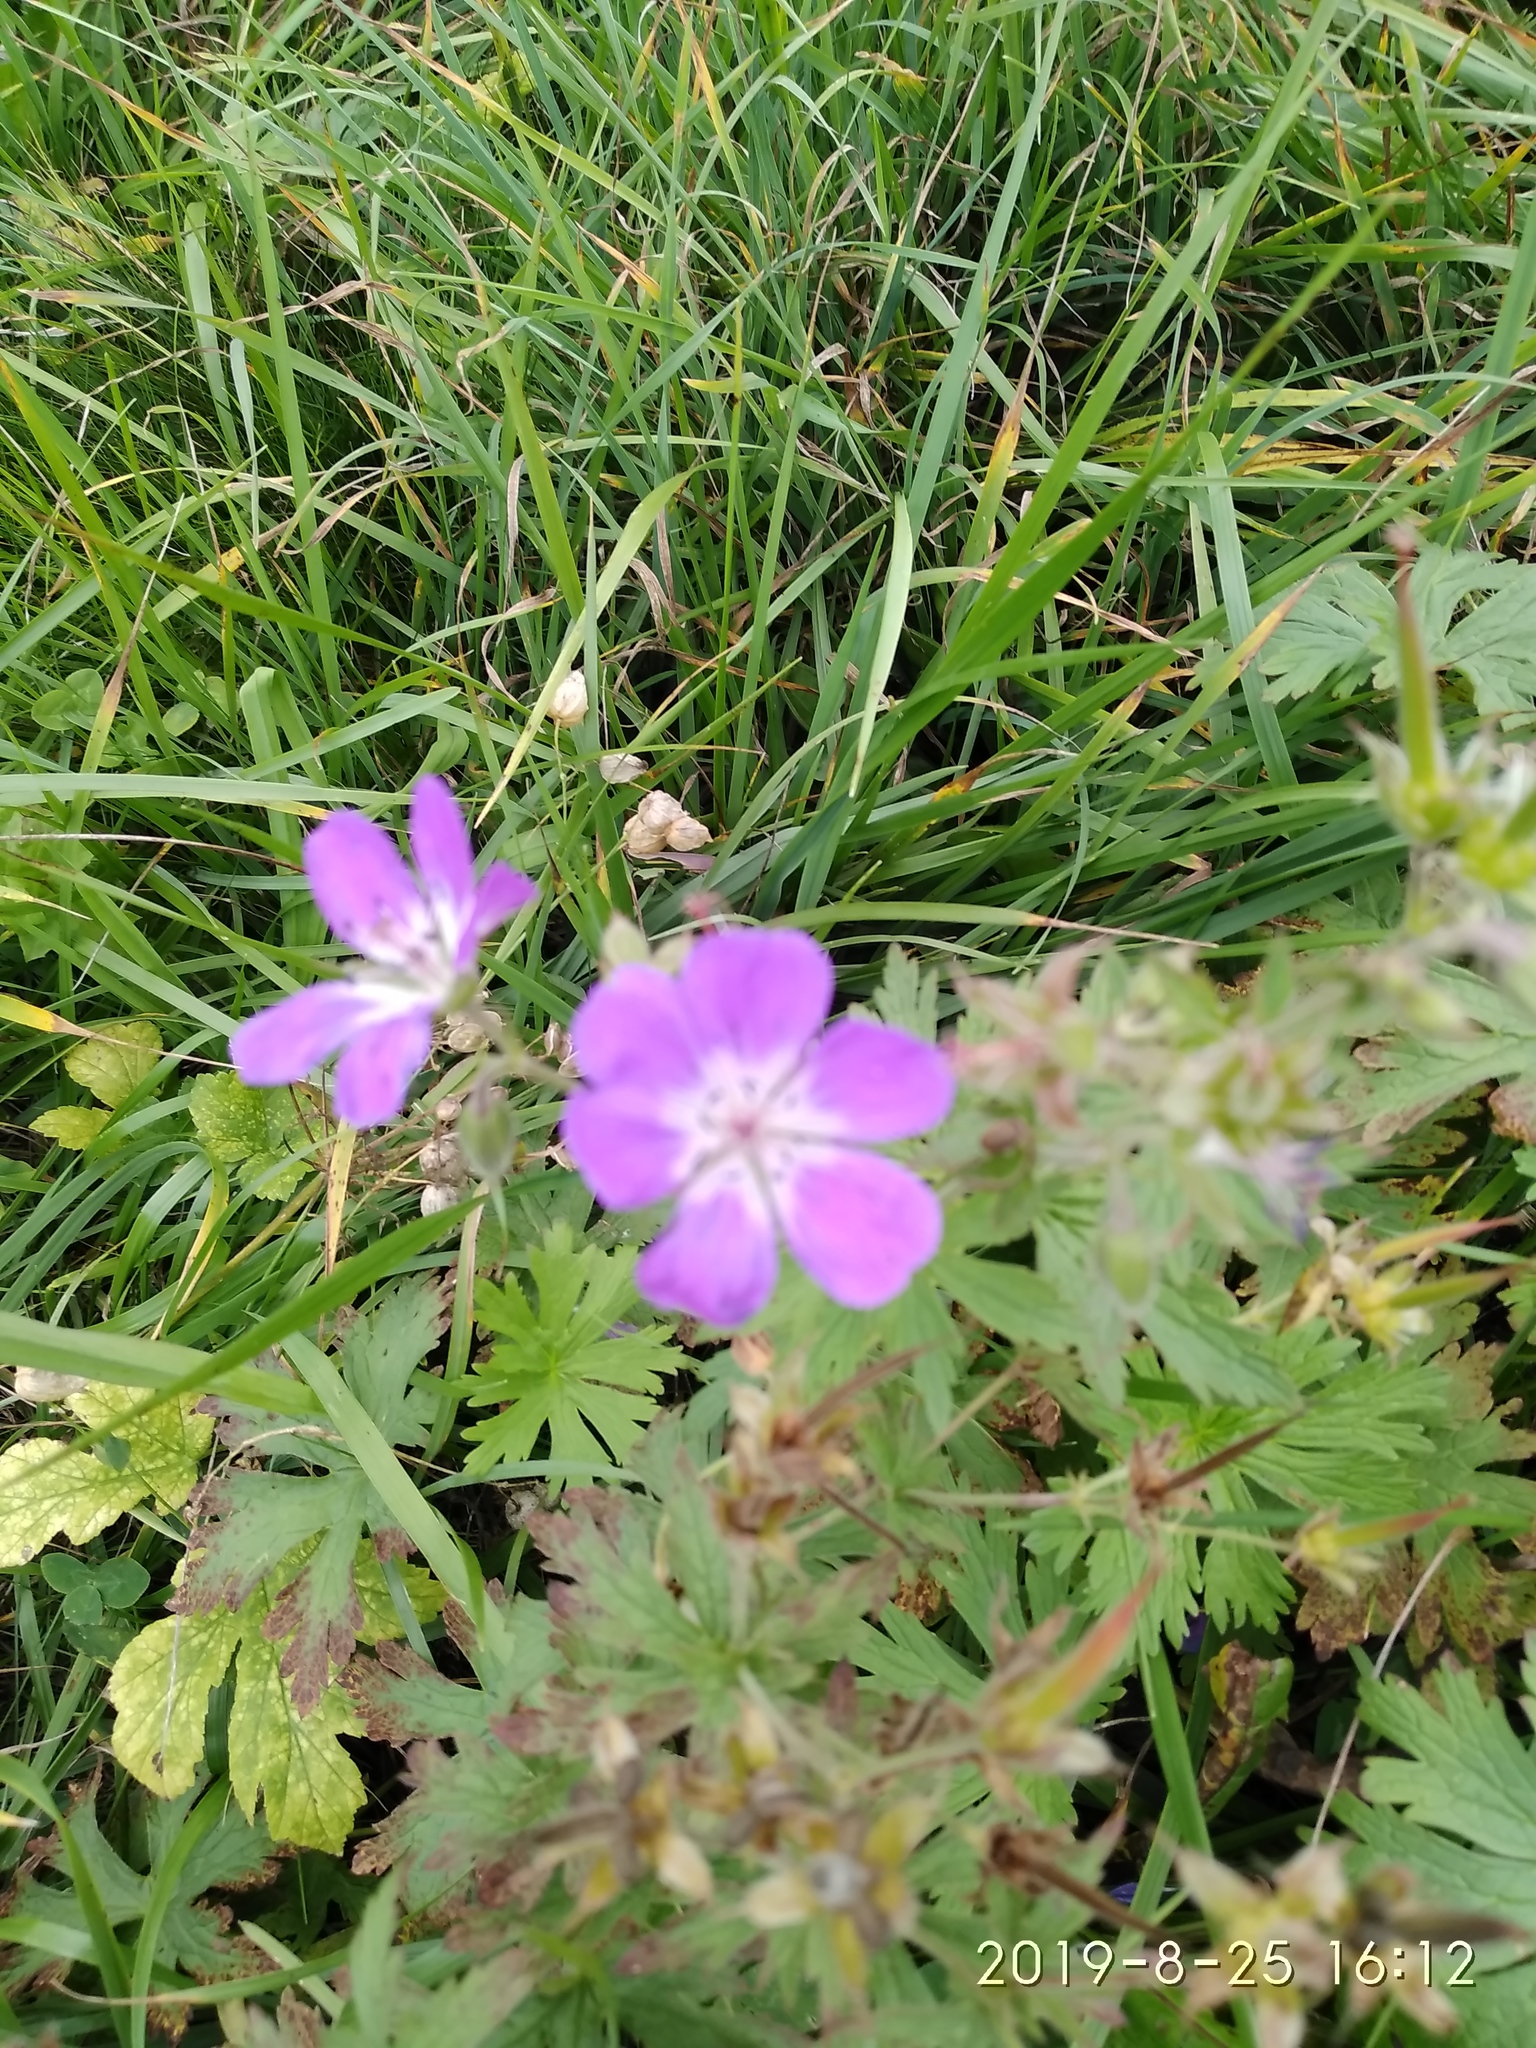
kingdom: Plantae
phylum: Tracheophyta
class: Magnoliopsida
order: Geraniales
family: Geraniaceae
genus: Geranium
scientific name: Geranium sylvaticum
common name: Wood crane's-bill
